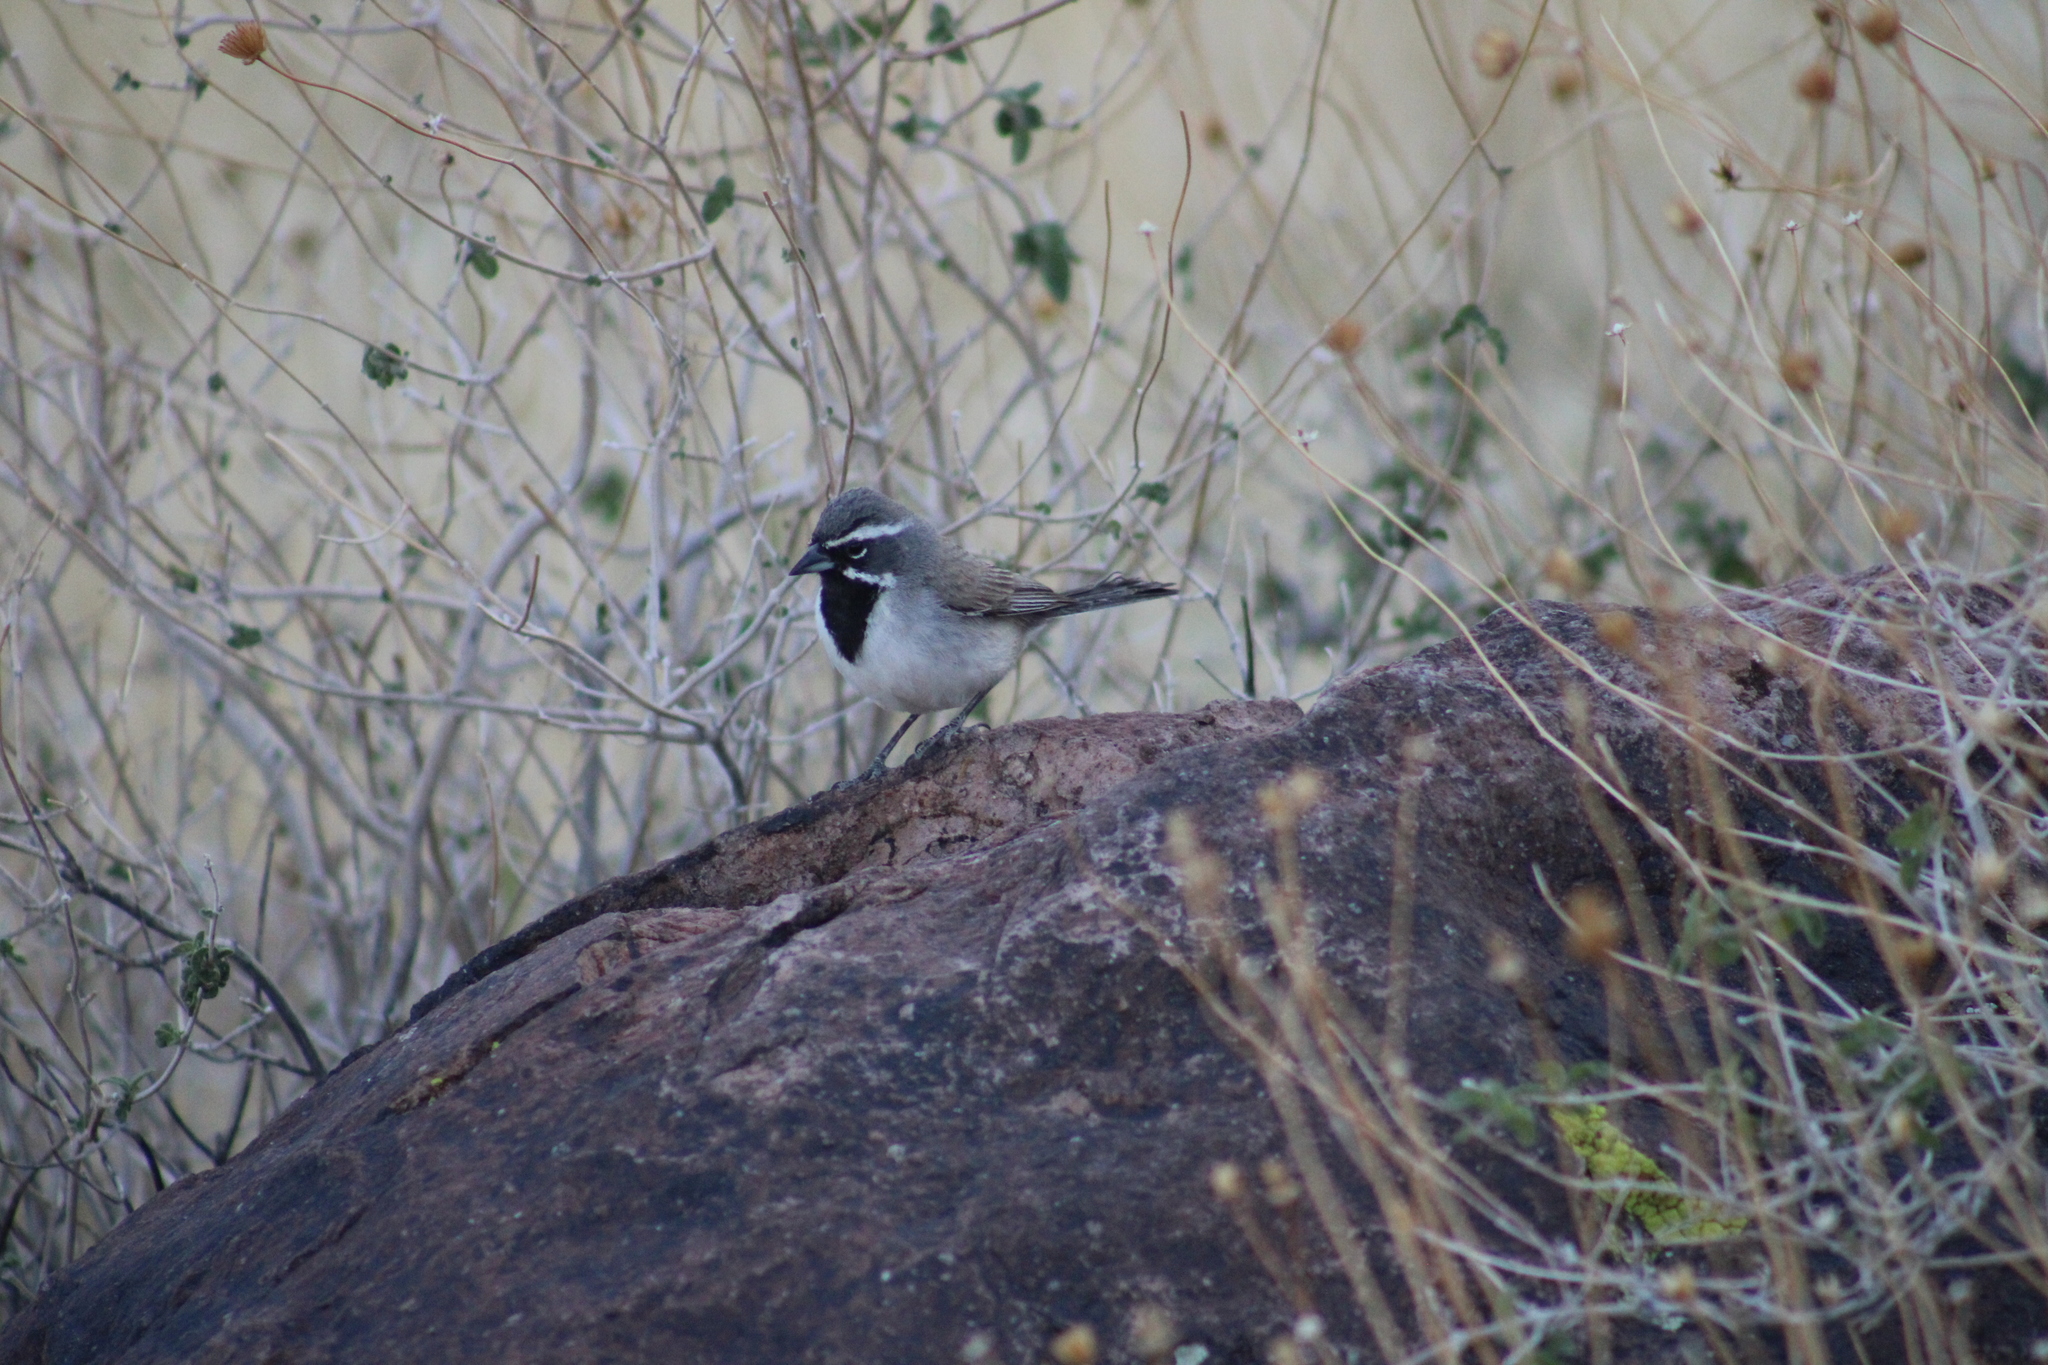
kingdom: Animalia
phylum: Chordata
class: Aves
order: Passeriformes
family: Passerellidae
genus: Amphispiza
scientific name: Amphispiza bilineata
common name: Black-throated sparrow
